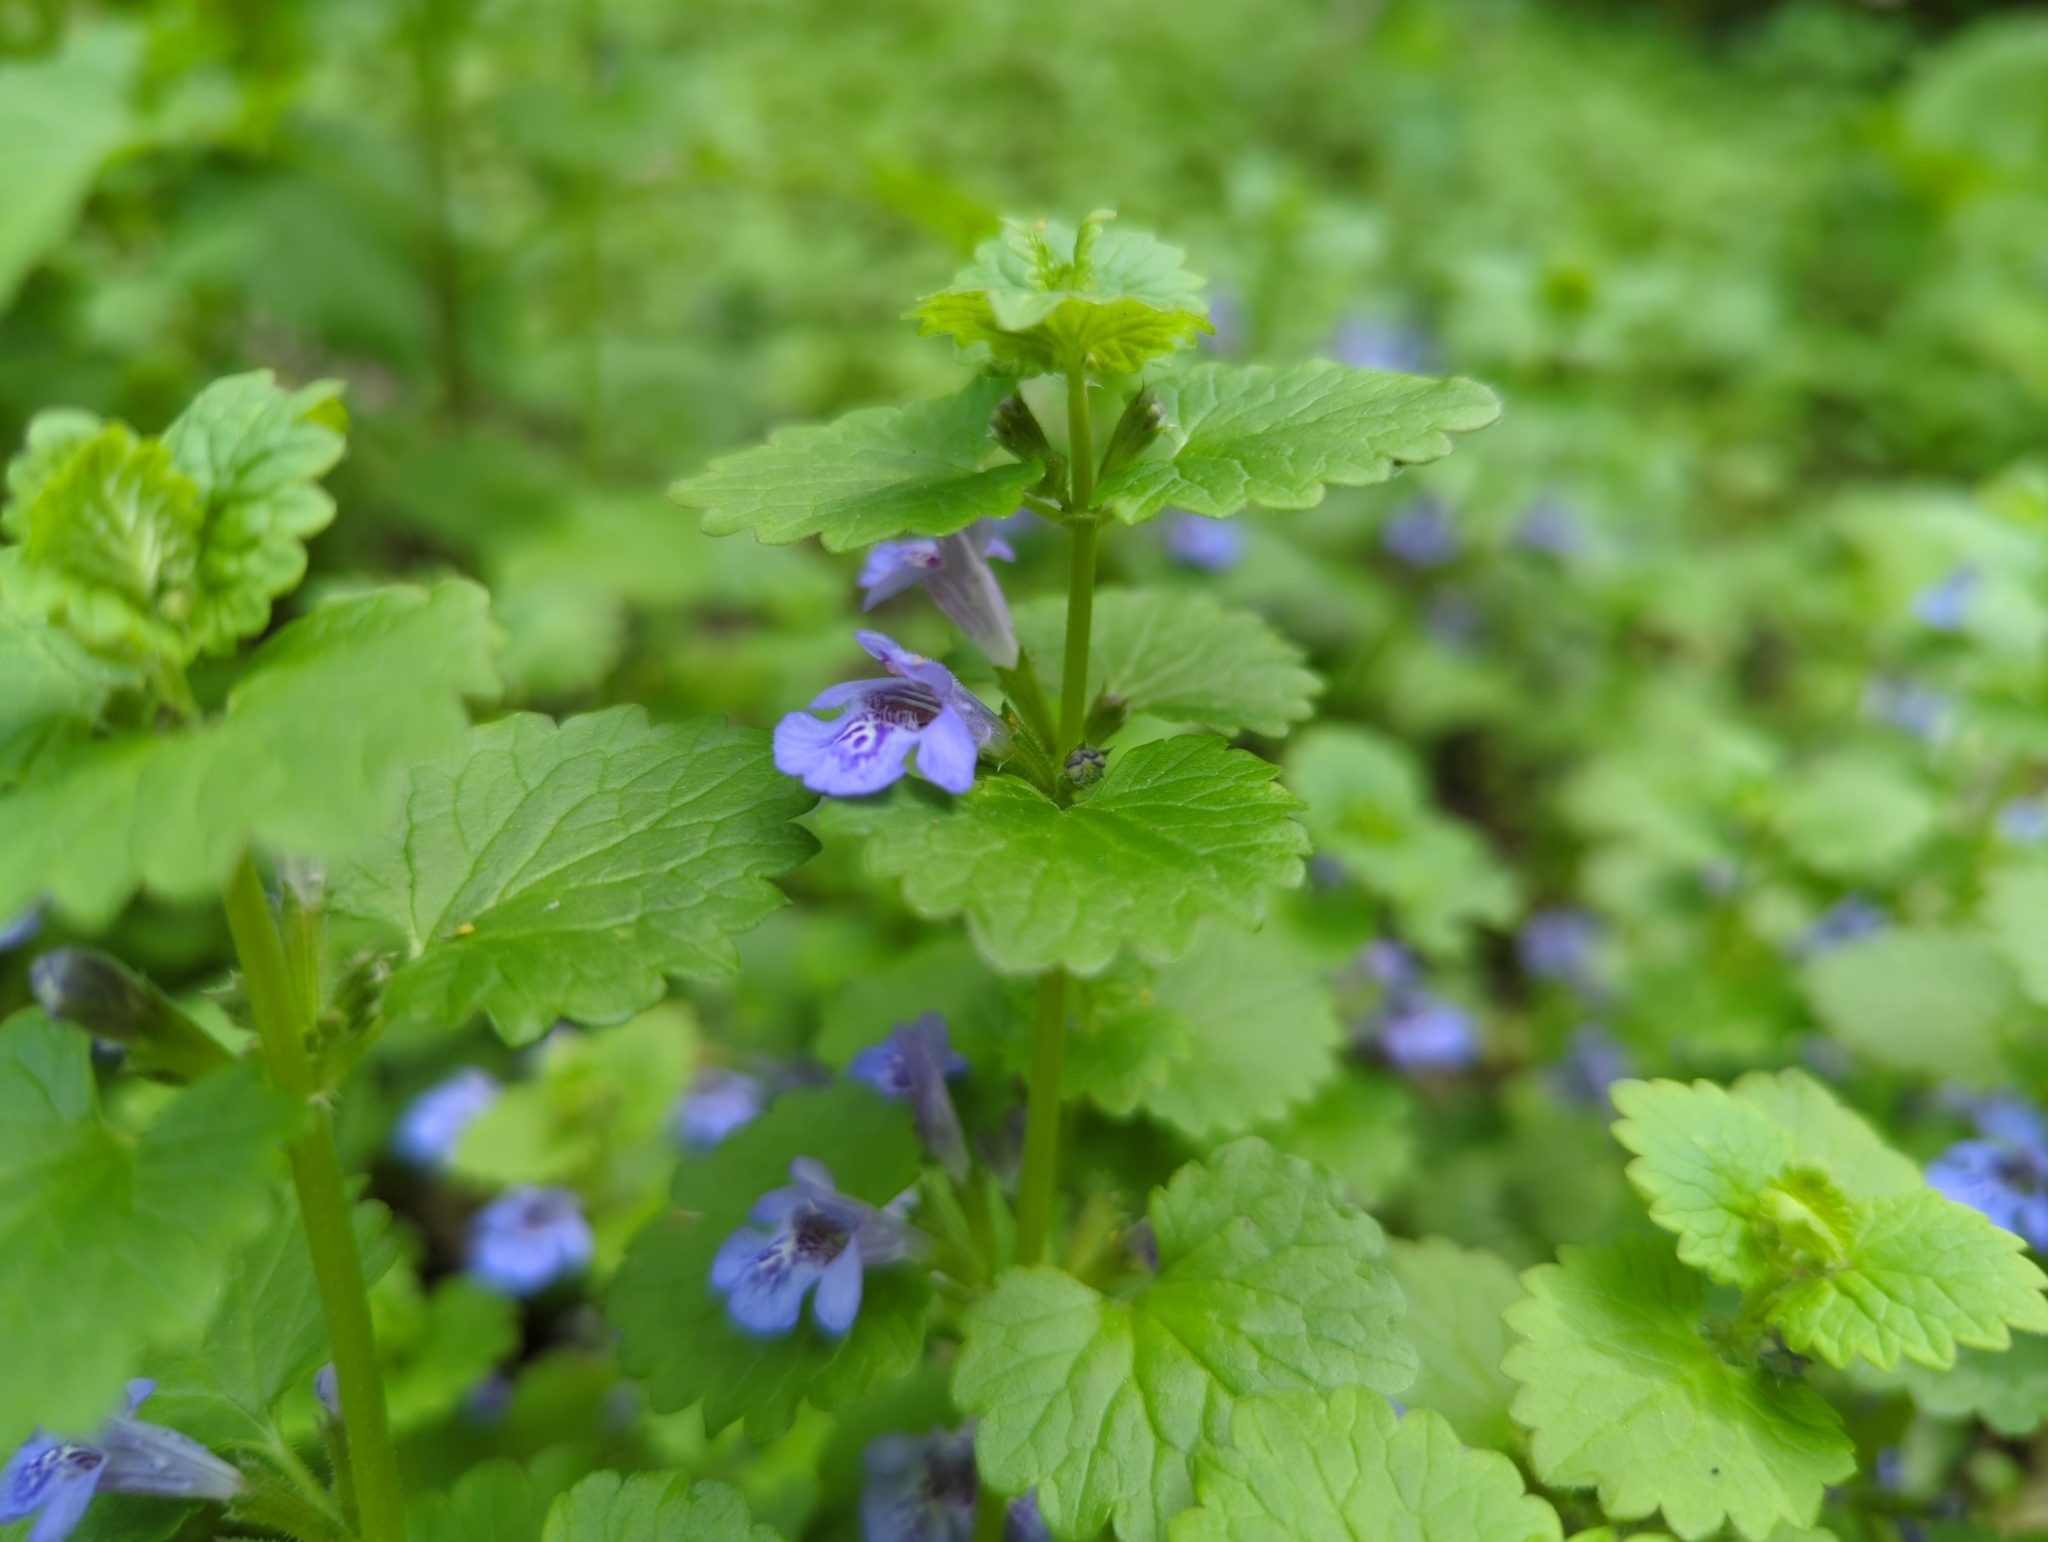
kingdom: Plantae
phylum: Tracheophyta
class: Magnoliopsida
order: Lamiales
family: Lamiaceae
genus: Glechoma
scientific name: Glechoma hederacea
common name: Ground ivy
